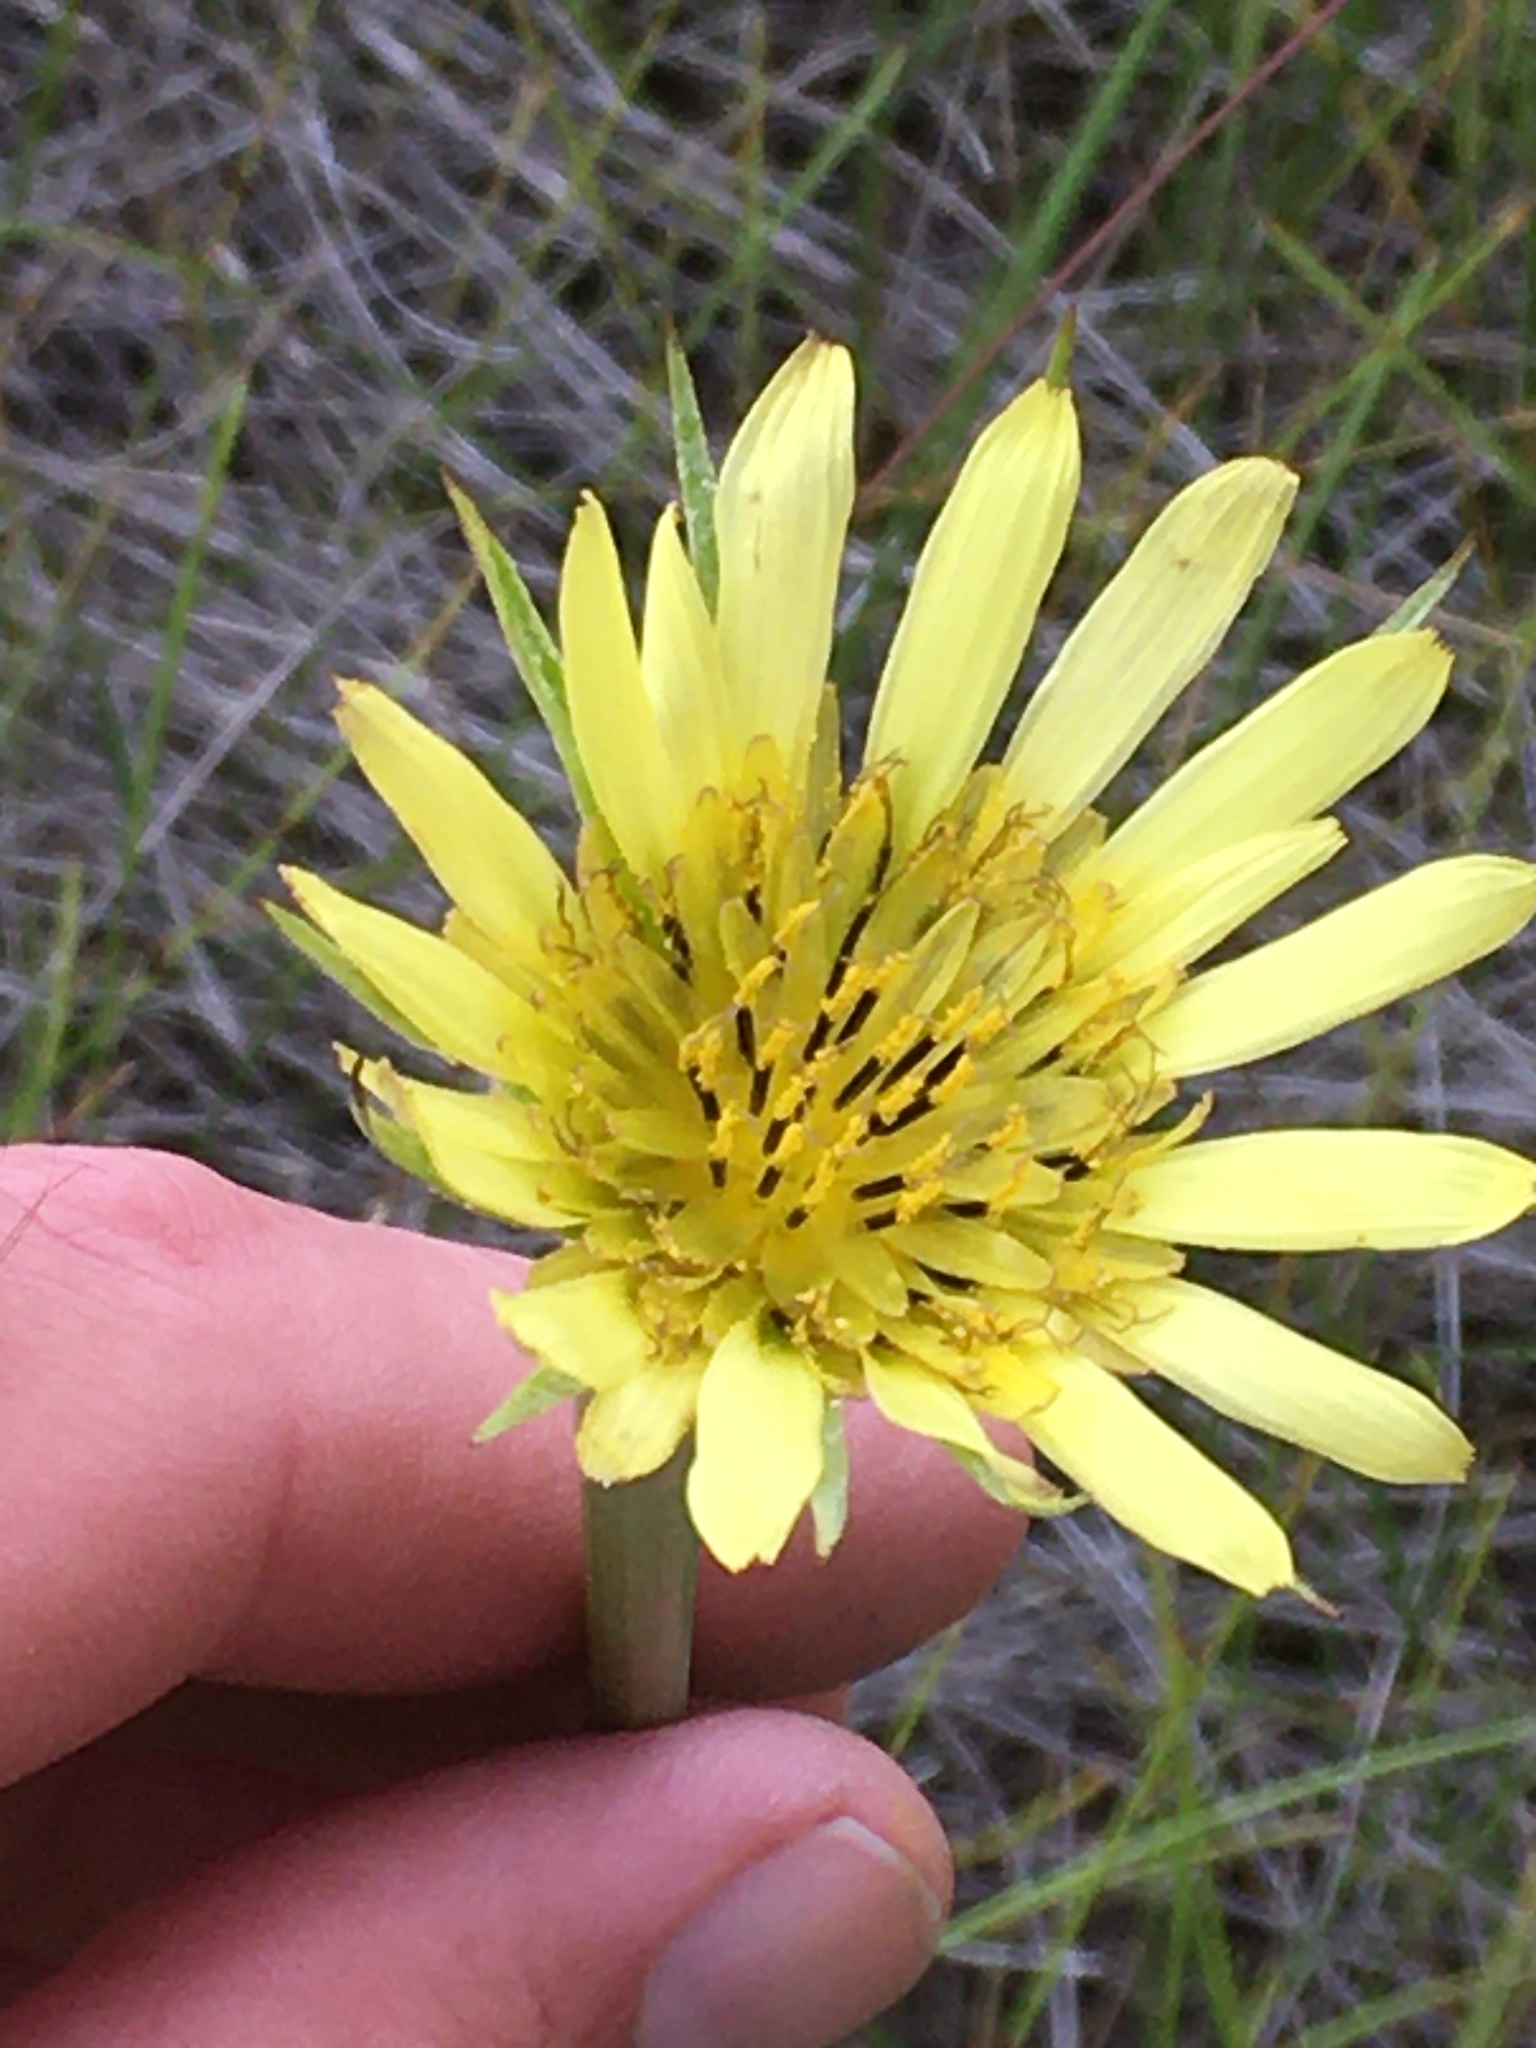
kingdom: Plantae
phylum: Tracheophyta
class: Magnoliopsida
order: Asterales
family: Asteraceae
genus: Tragopogon
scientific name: Tragopogon dubius
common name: Yellow salsify
